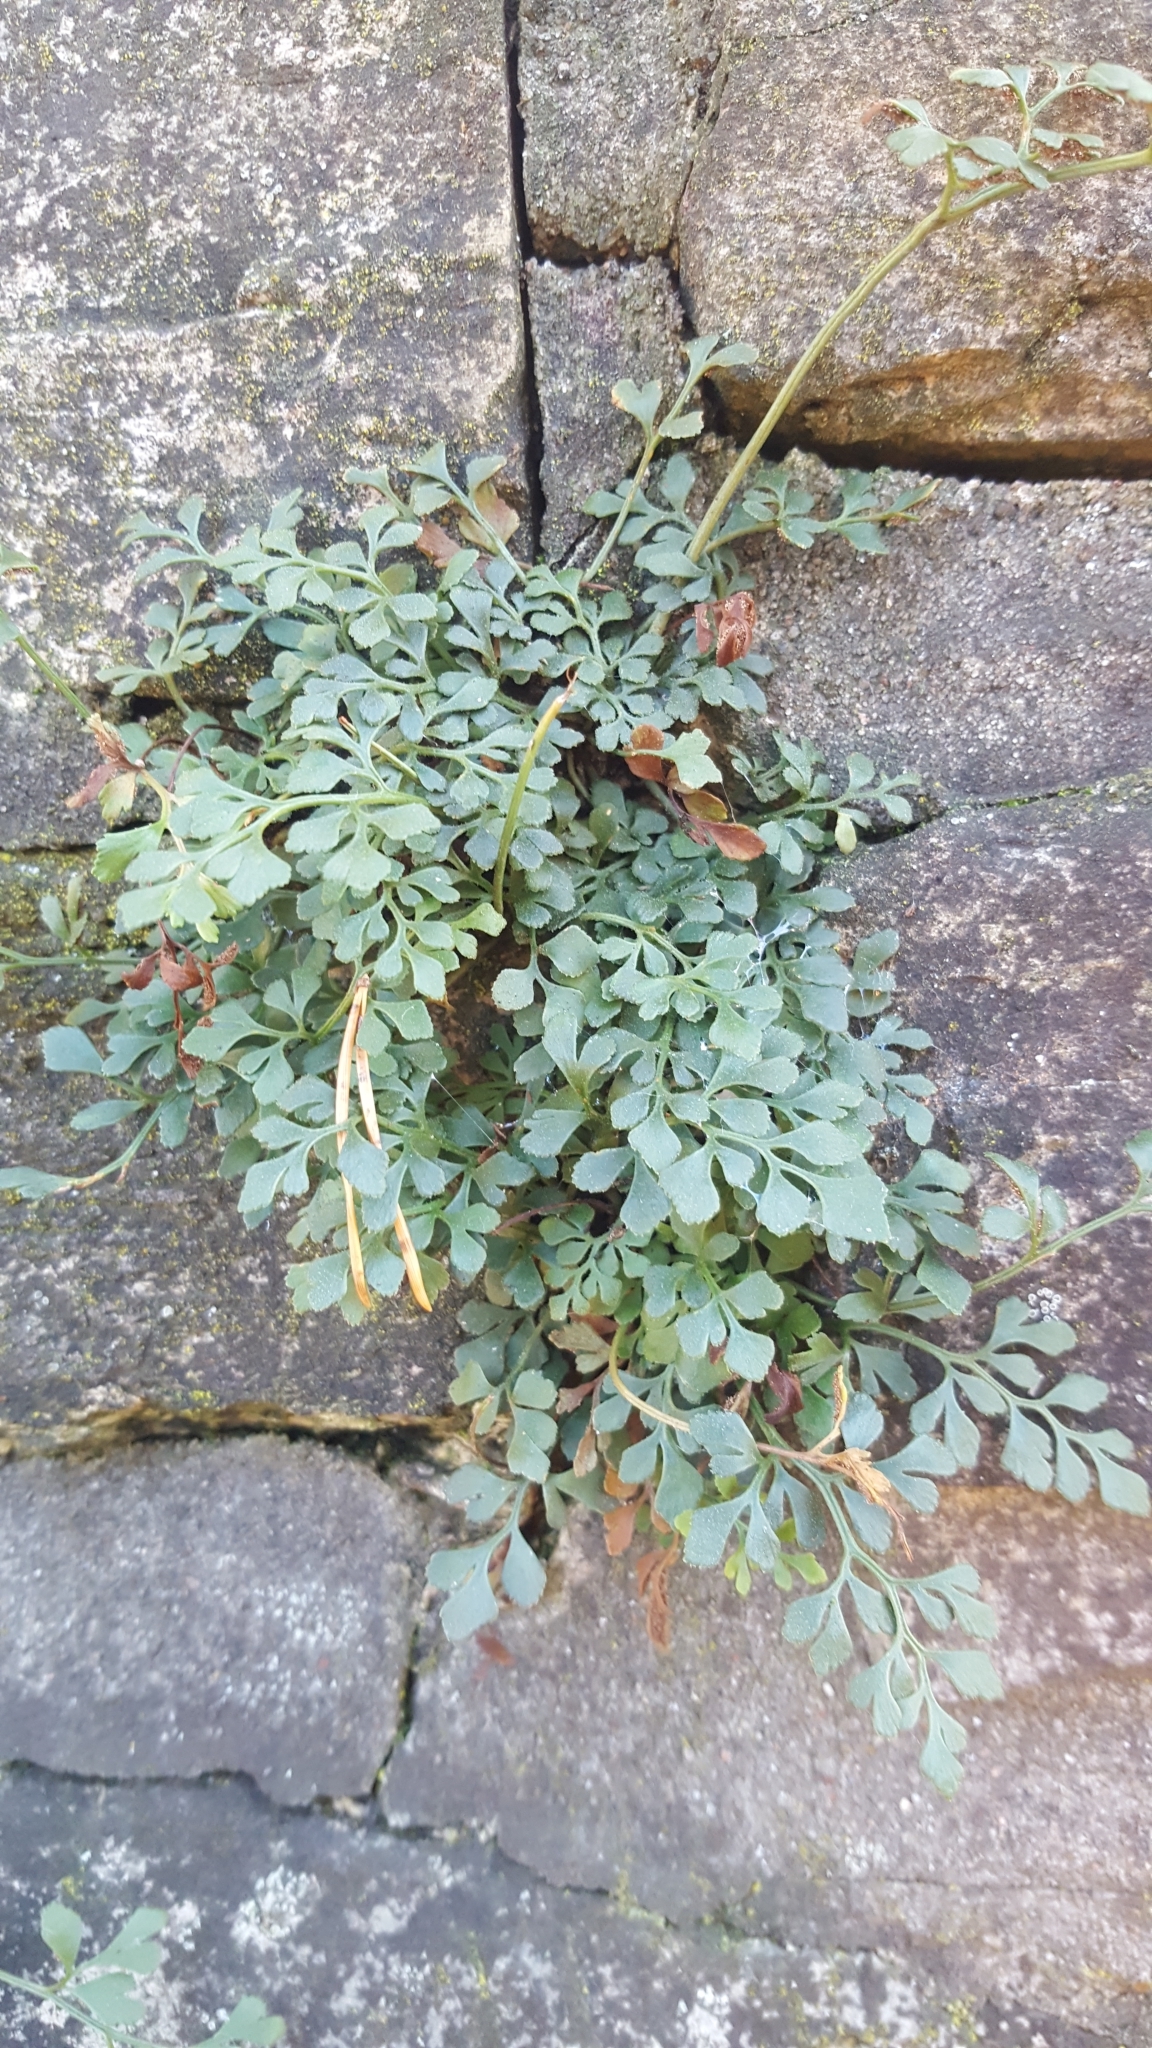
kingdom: Plantae
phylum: Tracheophyta
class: Polypodiopsida
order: Polypodiales
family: Aspleniaceae
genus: Asplenium
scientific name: Asplenium ruta-muraria
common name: Wall-rue
